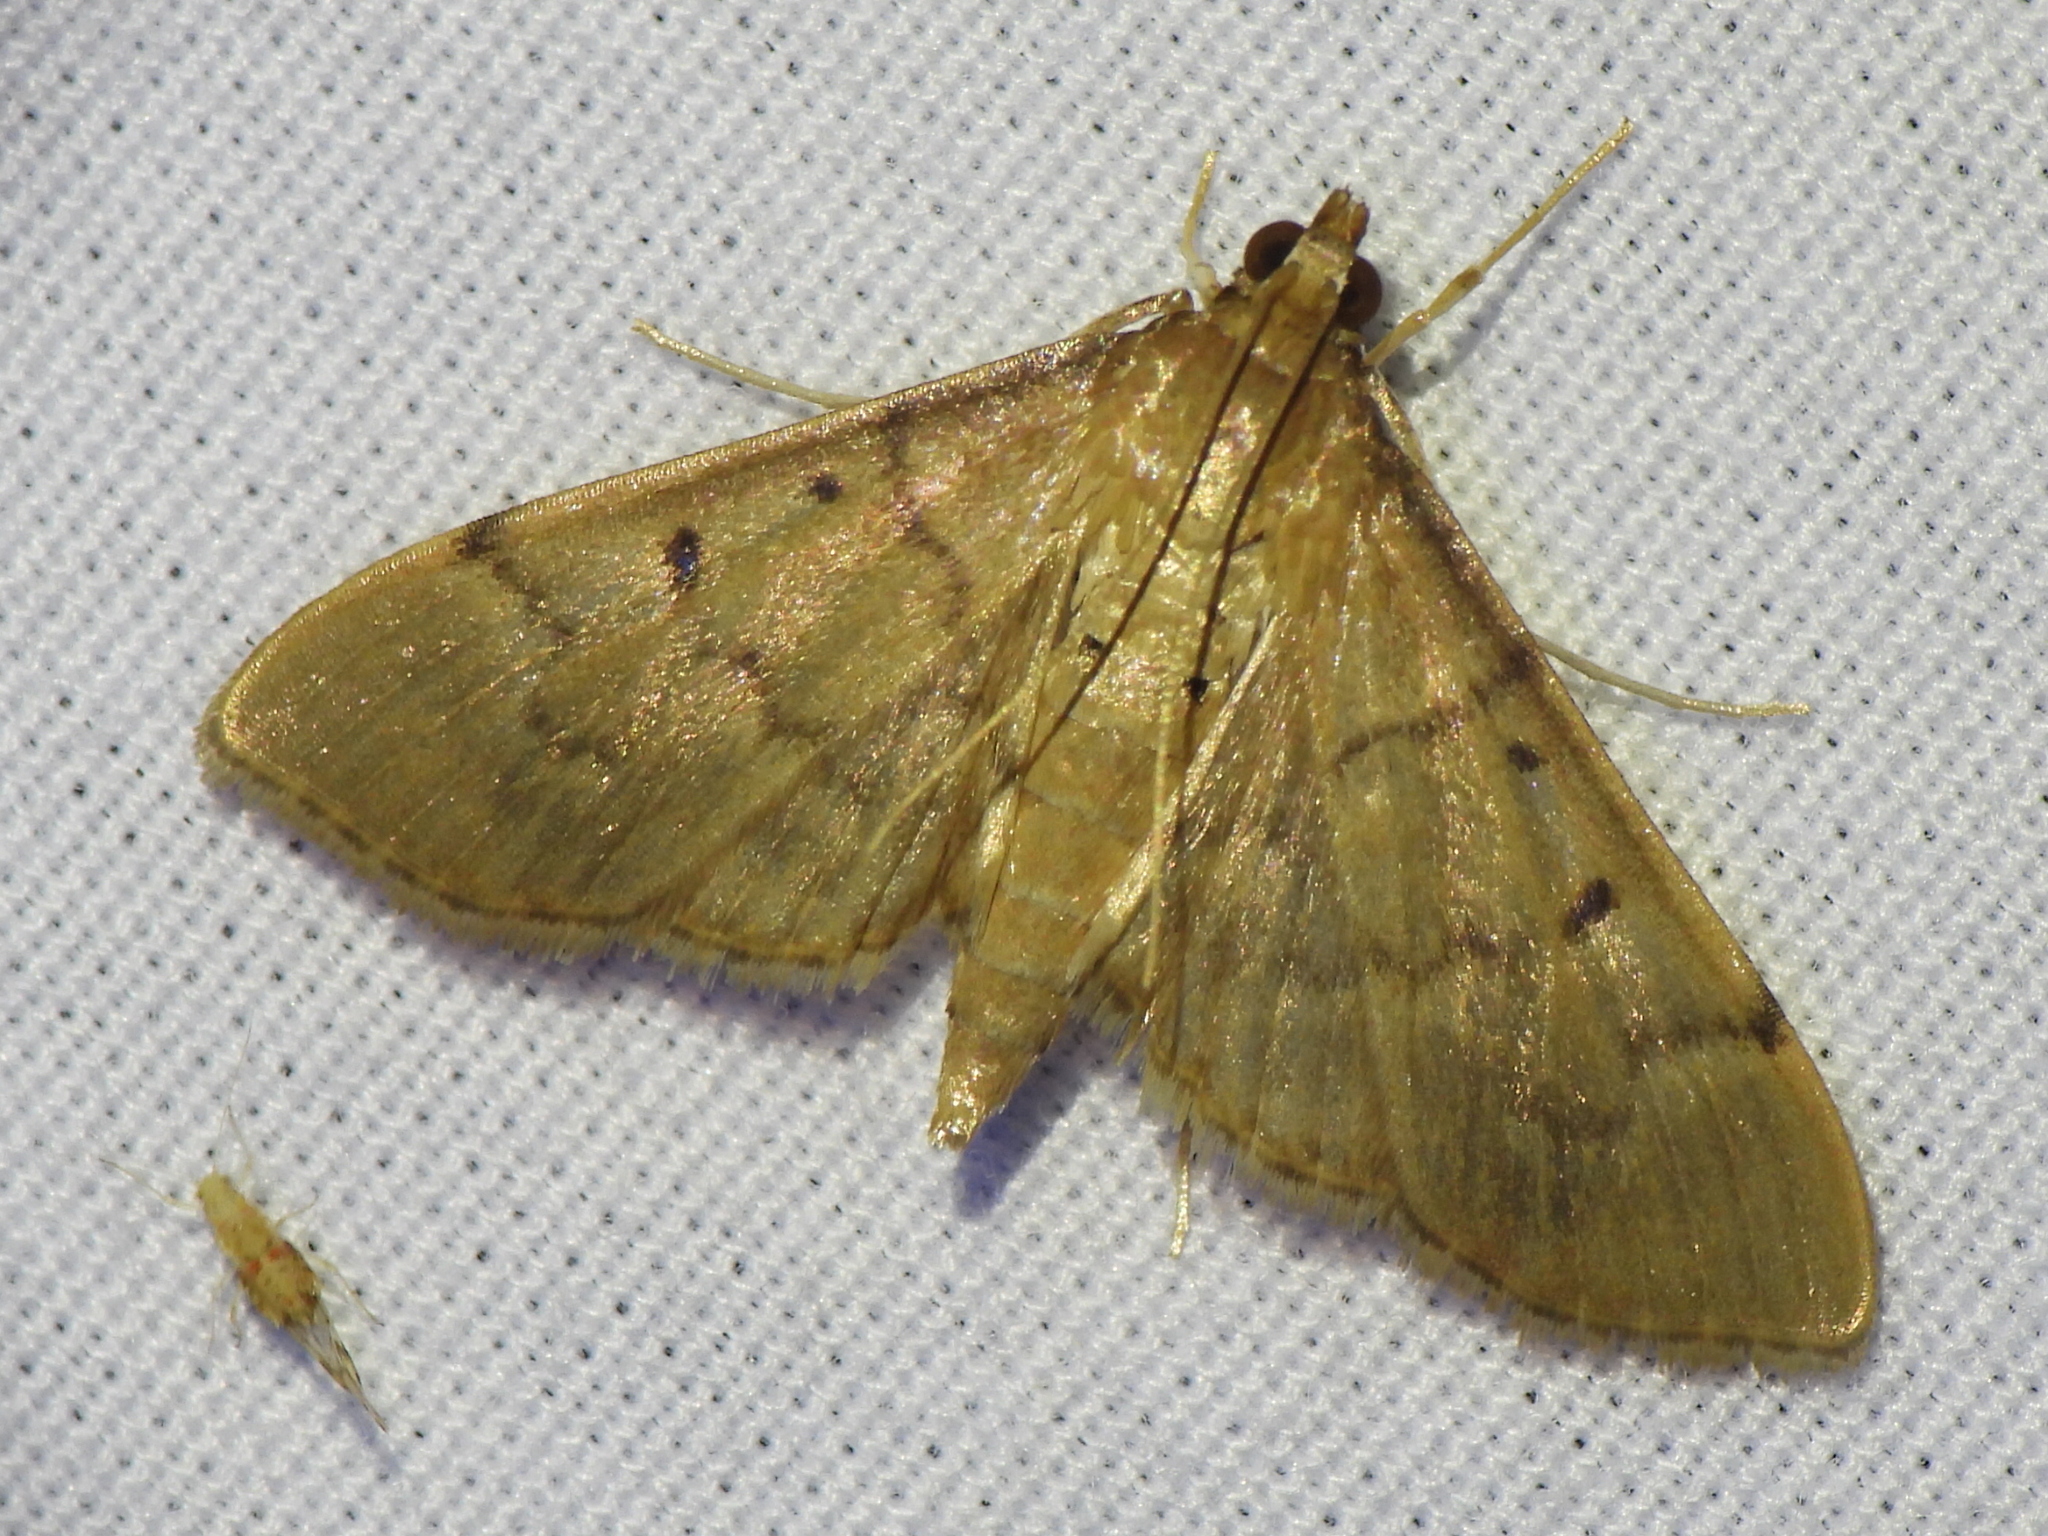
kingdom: Animalia
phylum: Arthropoda
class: Insecta
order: Lepidoptera
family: Crambidae
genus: Herpetogramma
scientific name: Herpetogramma bipunctalis
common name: Southern beet webworm
